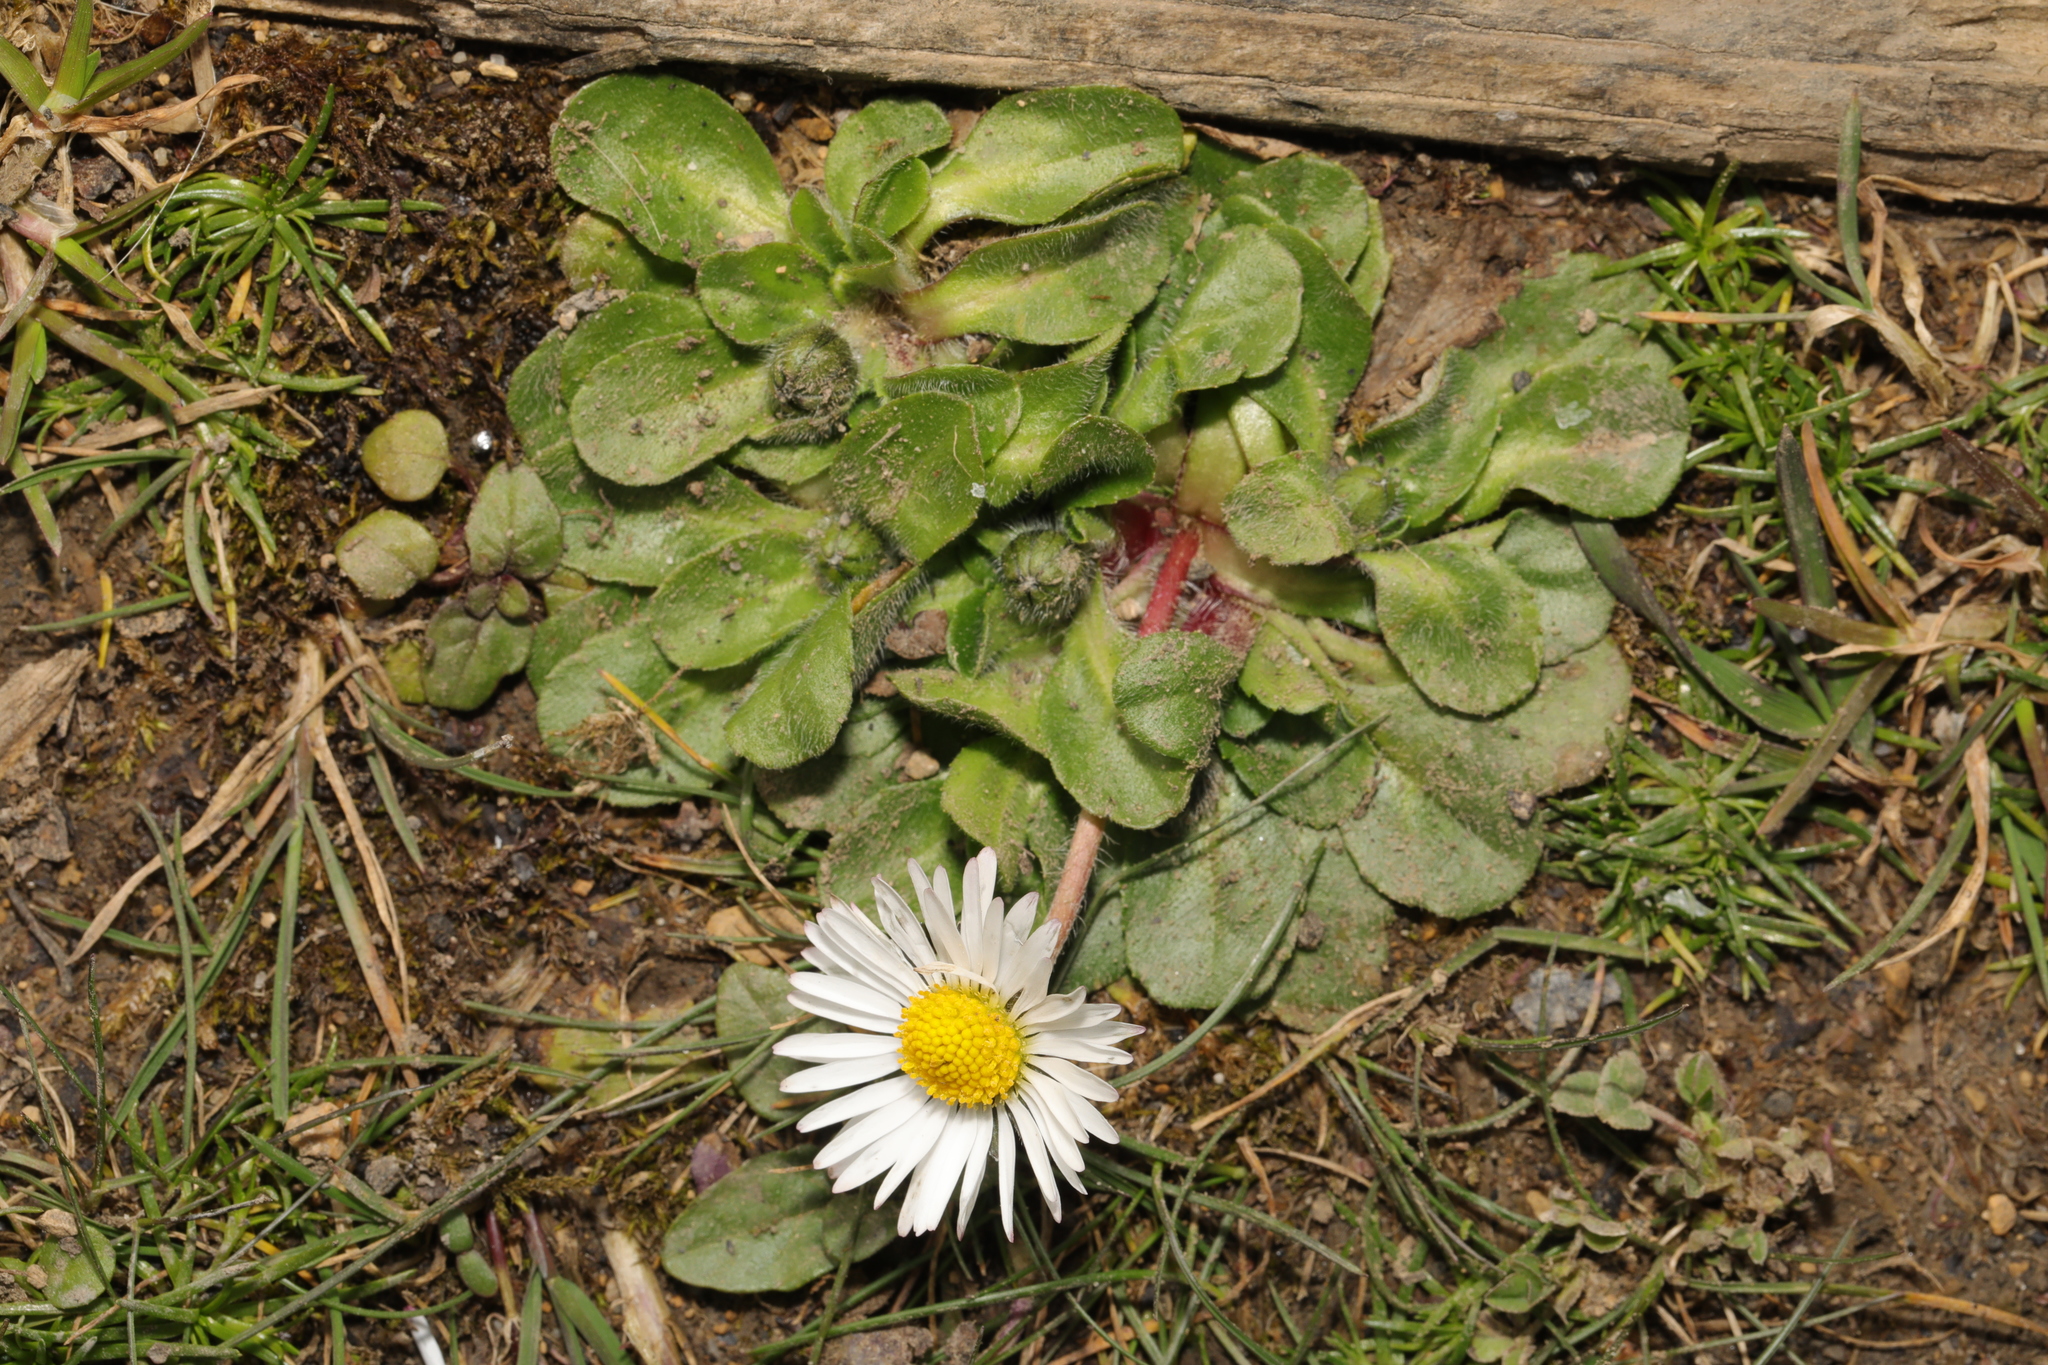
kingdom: Plantae
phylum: Tracheophyta
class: Magnoliopsida
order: Asterales
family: Asteraceae
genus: Bellis
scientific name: Bellis perennis
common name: Lawndaisy
